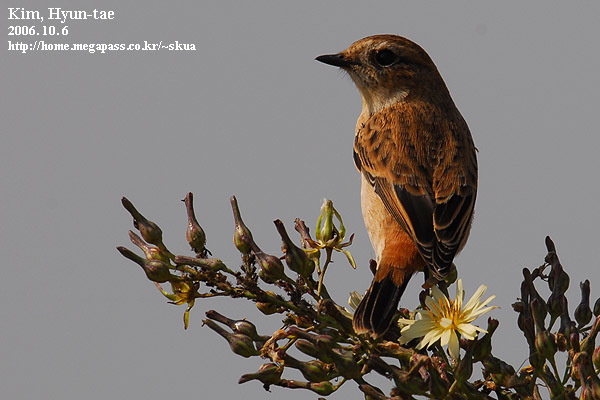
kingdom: Animalia
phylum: Chordata
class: Aves
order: Passeriformes
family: Muscicapidae
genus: Saxicola
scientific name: Saxicola stejnegeri
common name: Stejneger's stonechat
